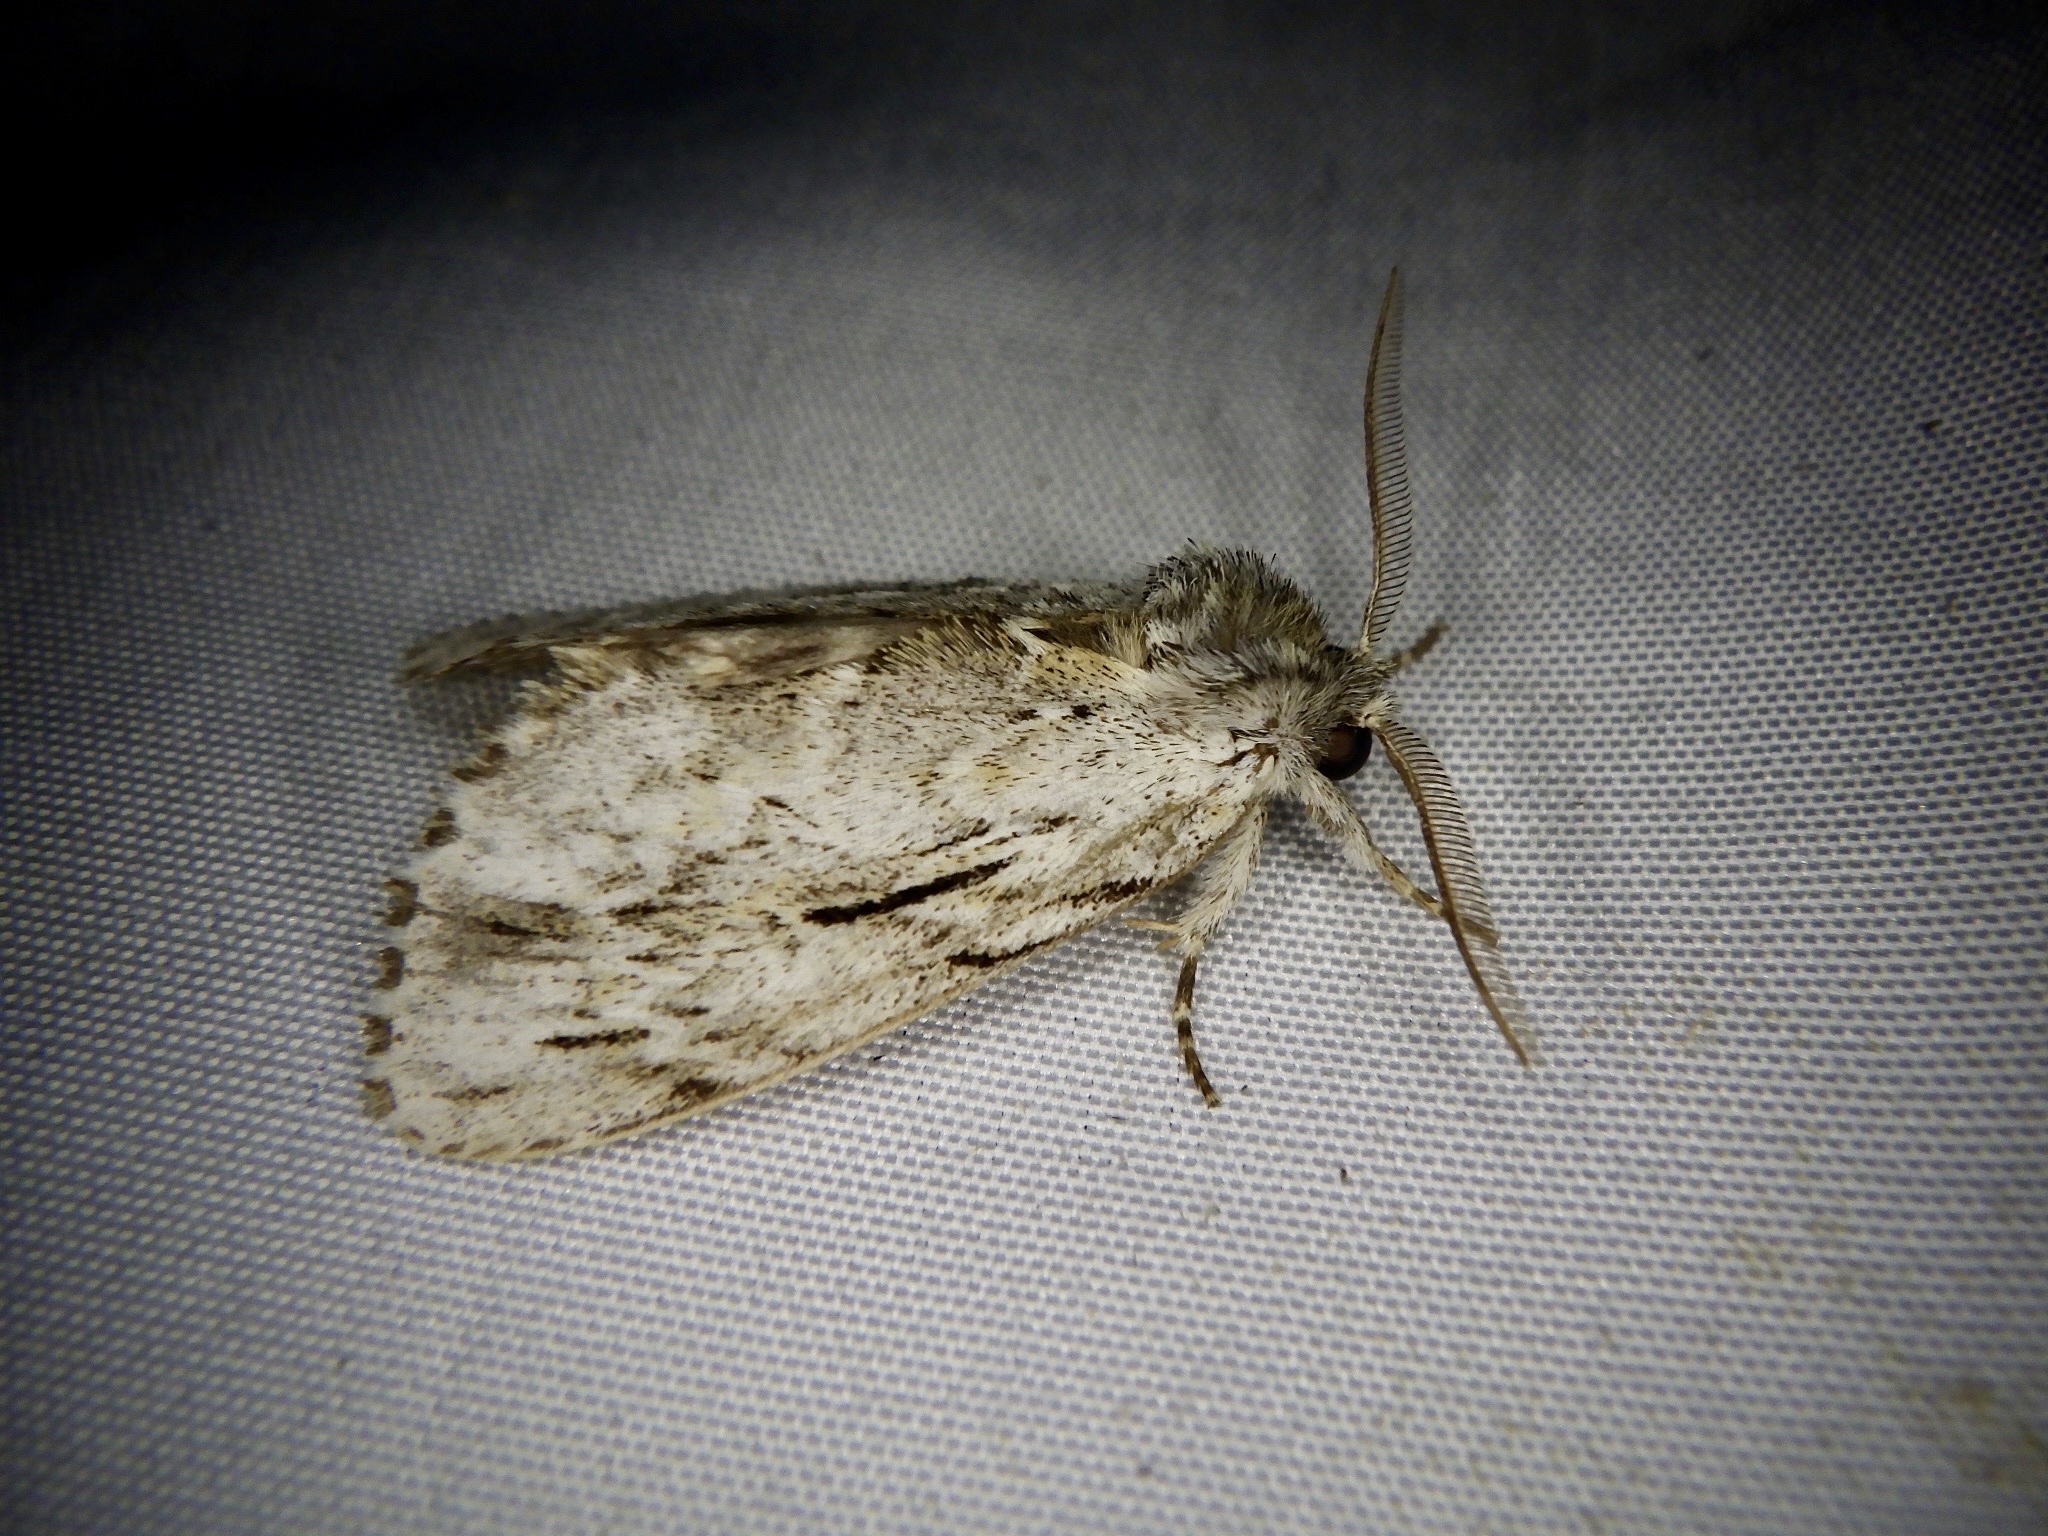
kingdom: Animalia
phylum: Arthropoda
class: Insecta
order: Lepidoptera
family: Notodontidae
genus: Ptilodon
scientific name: Ptilodon grisea
